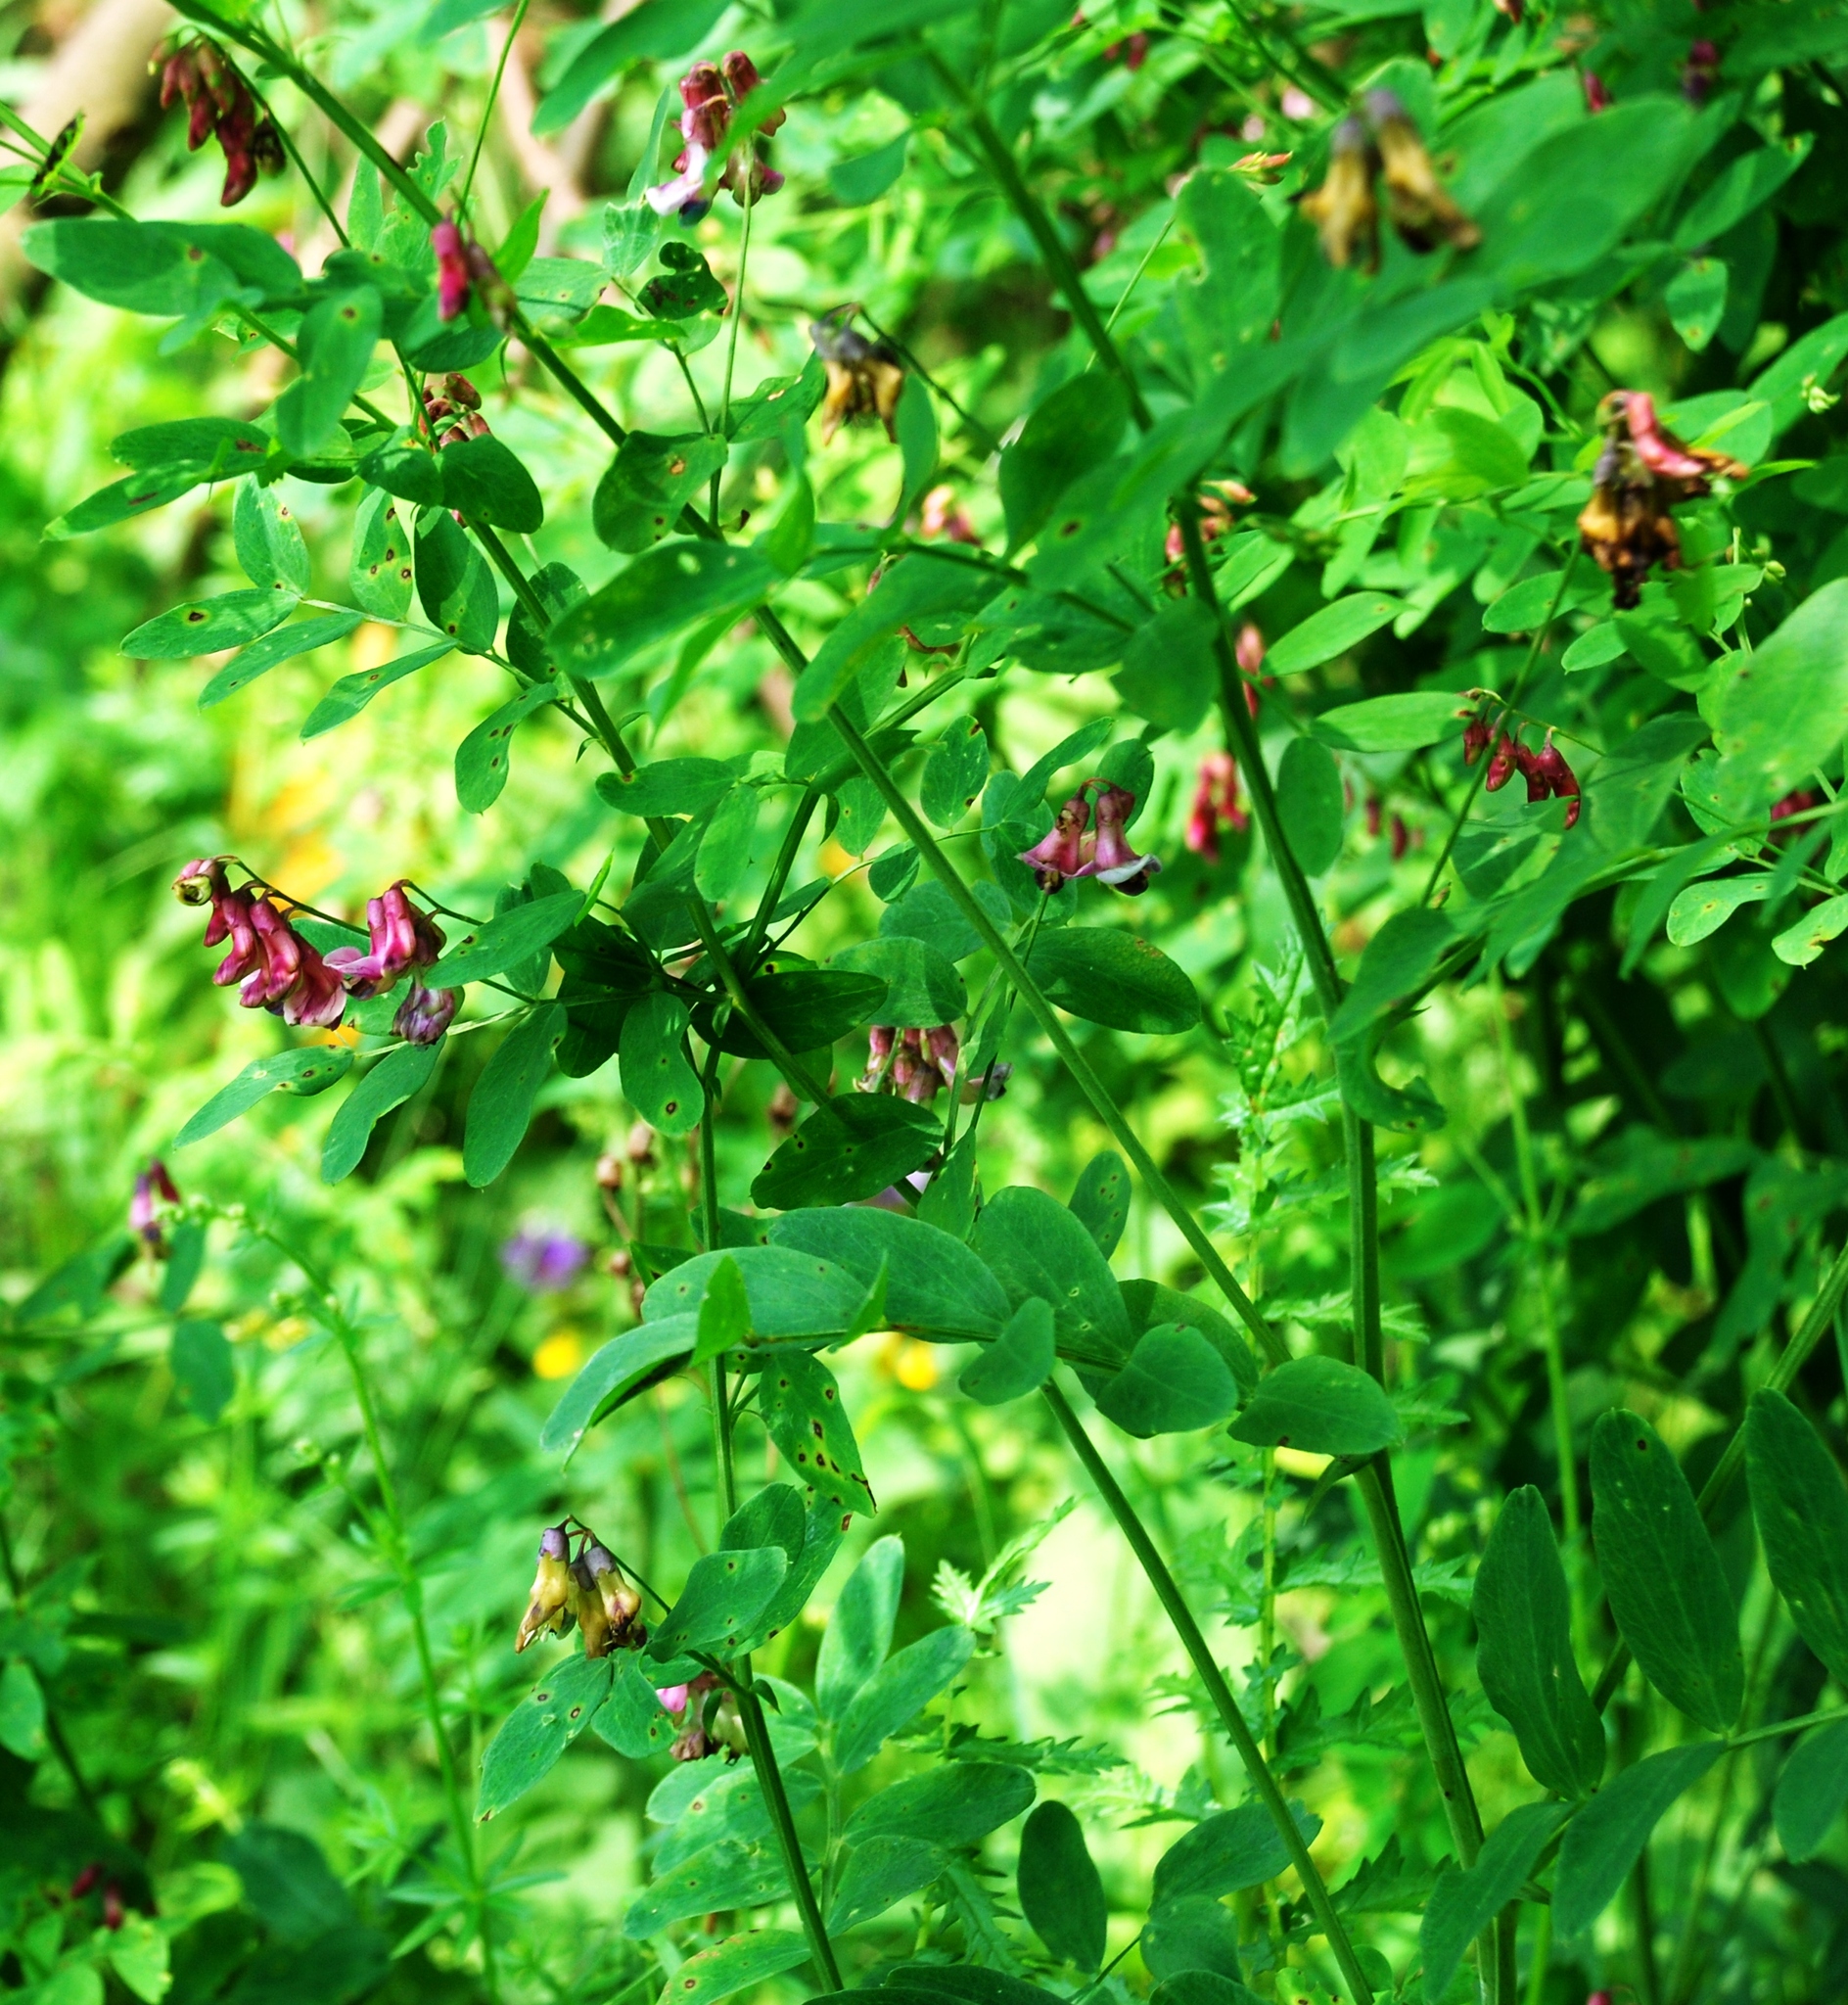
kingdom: Plantae
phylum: Tracheophyta
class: Magnoliopsida
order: Fabales
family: Fabaceae
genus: Lathyrus
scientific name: Lathyrus niger
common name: Black pea
